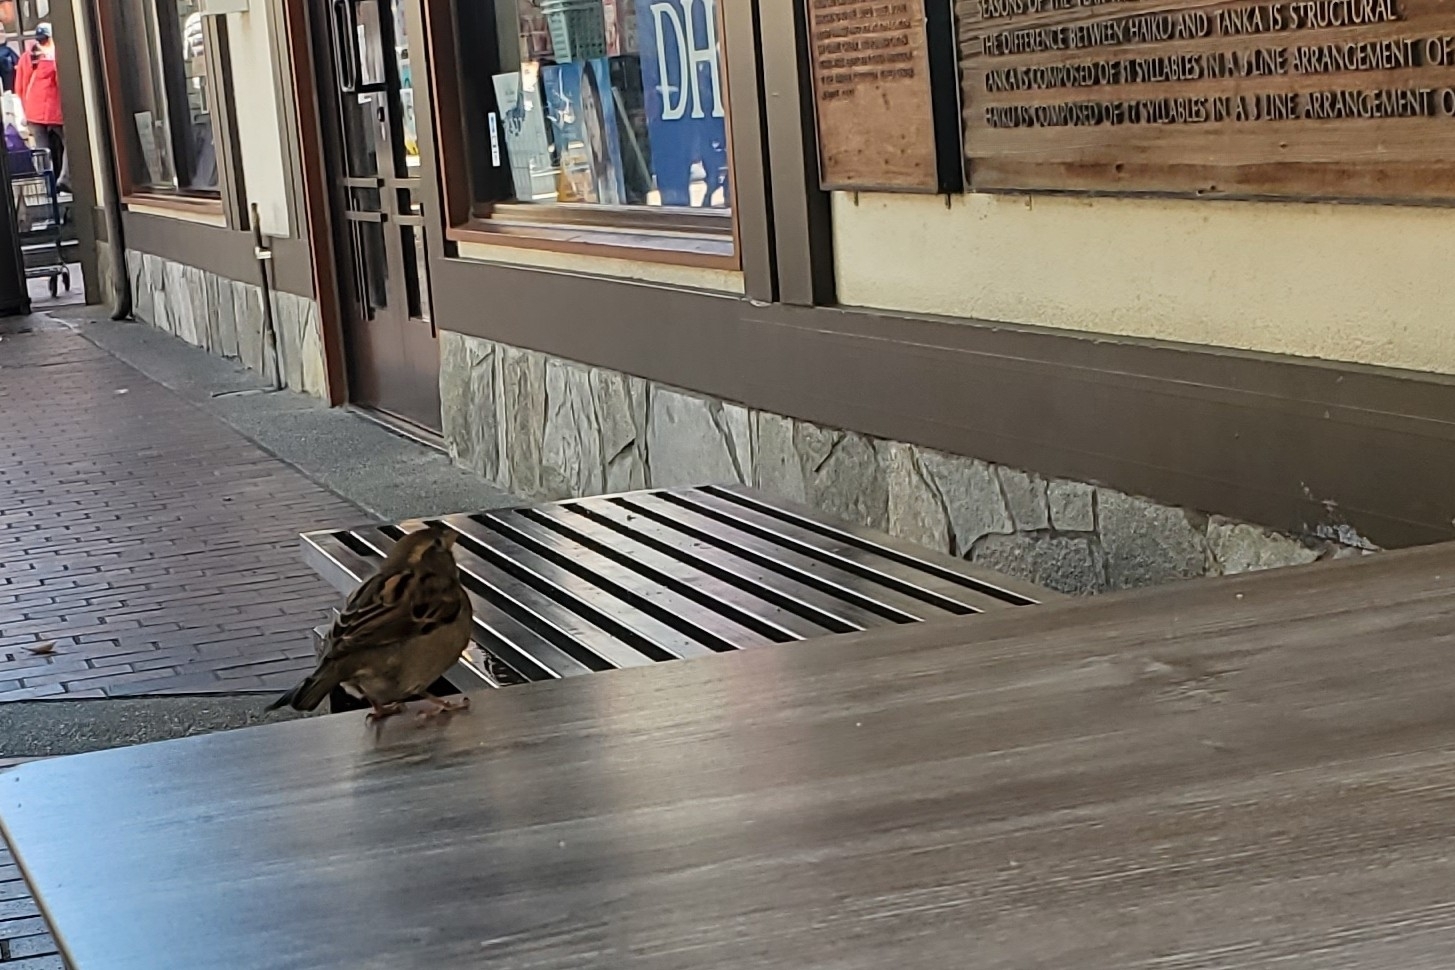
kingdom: Animalia
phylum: Chordata
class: Aves
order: Passeriformes
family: Passeridae
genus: Passer
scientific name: Passer domesticus
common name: House sparrow
